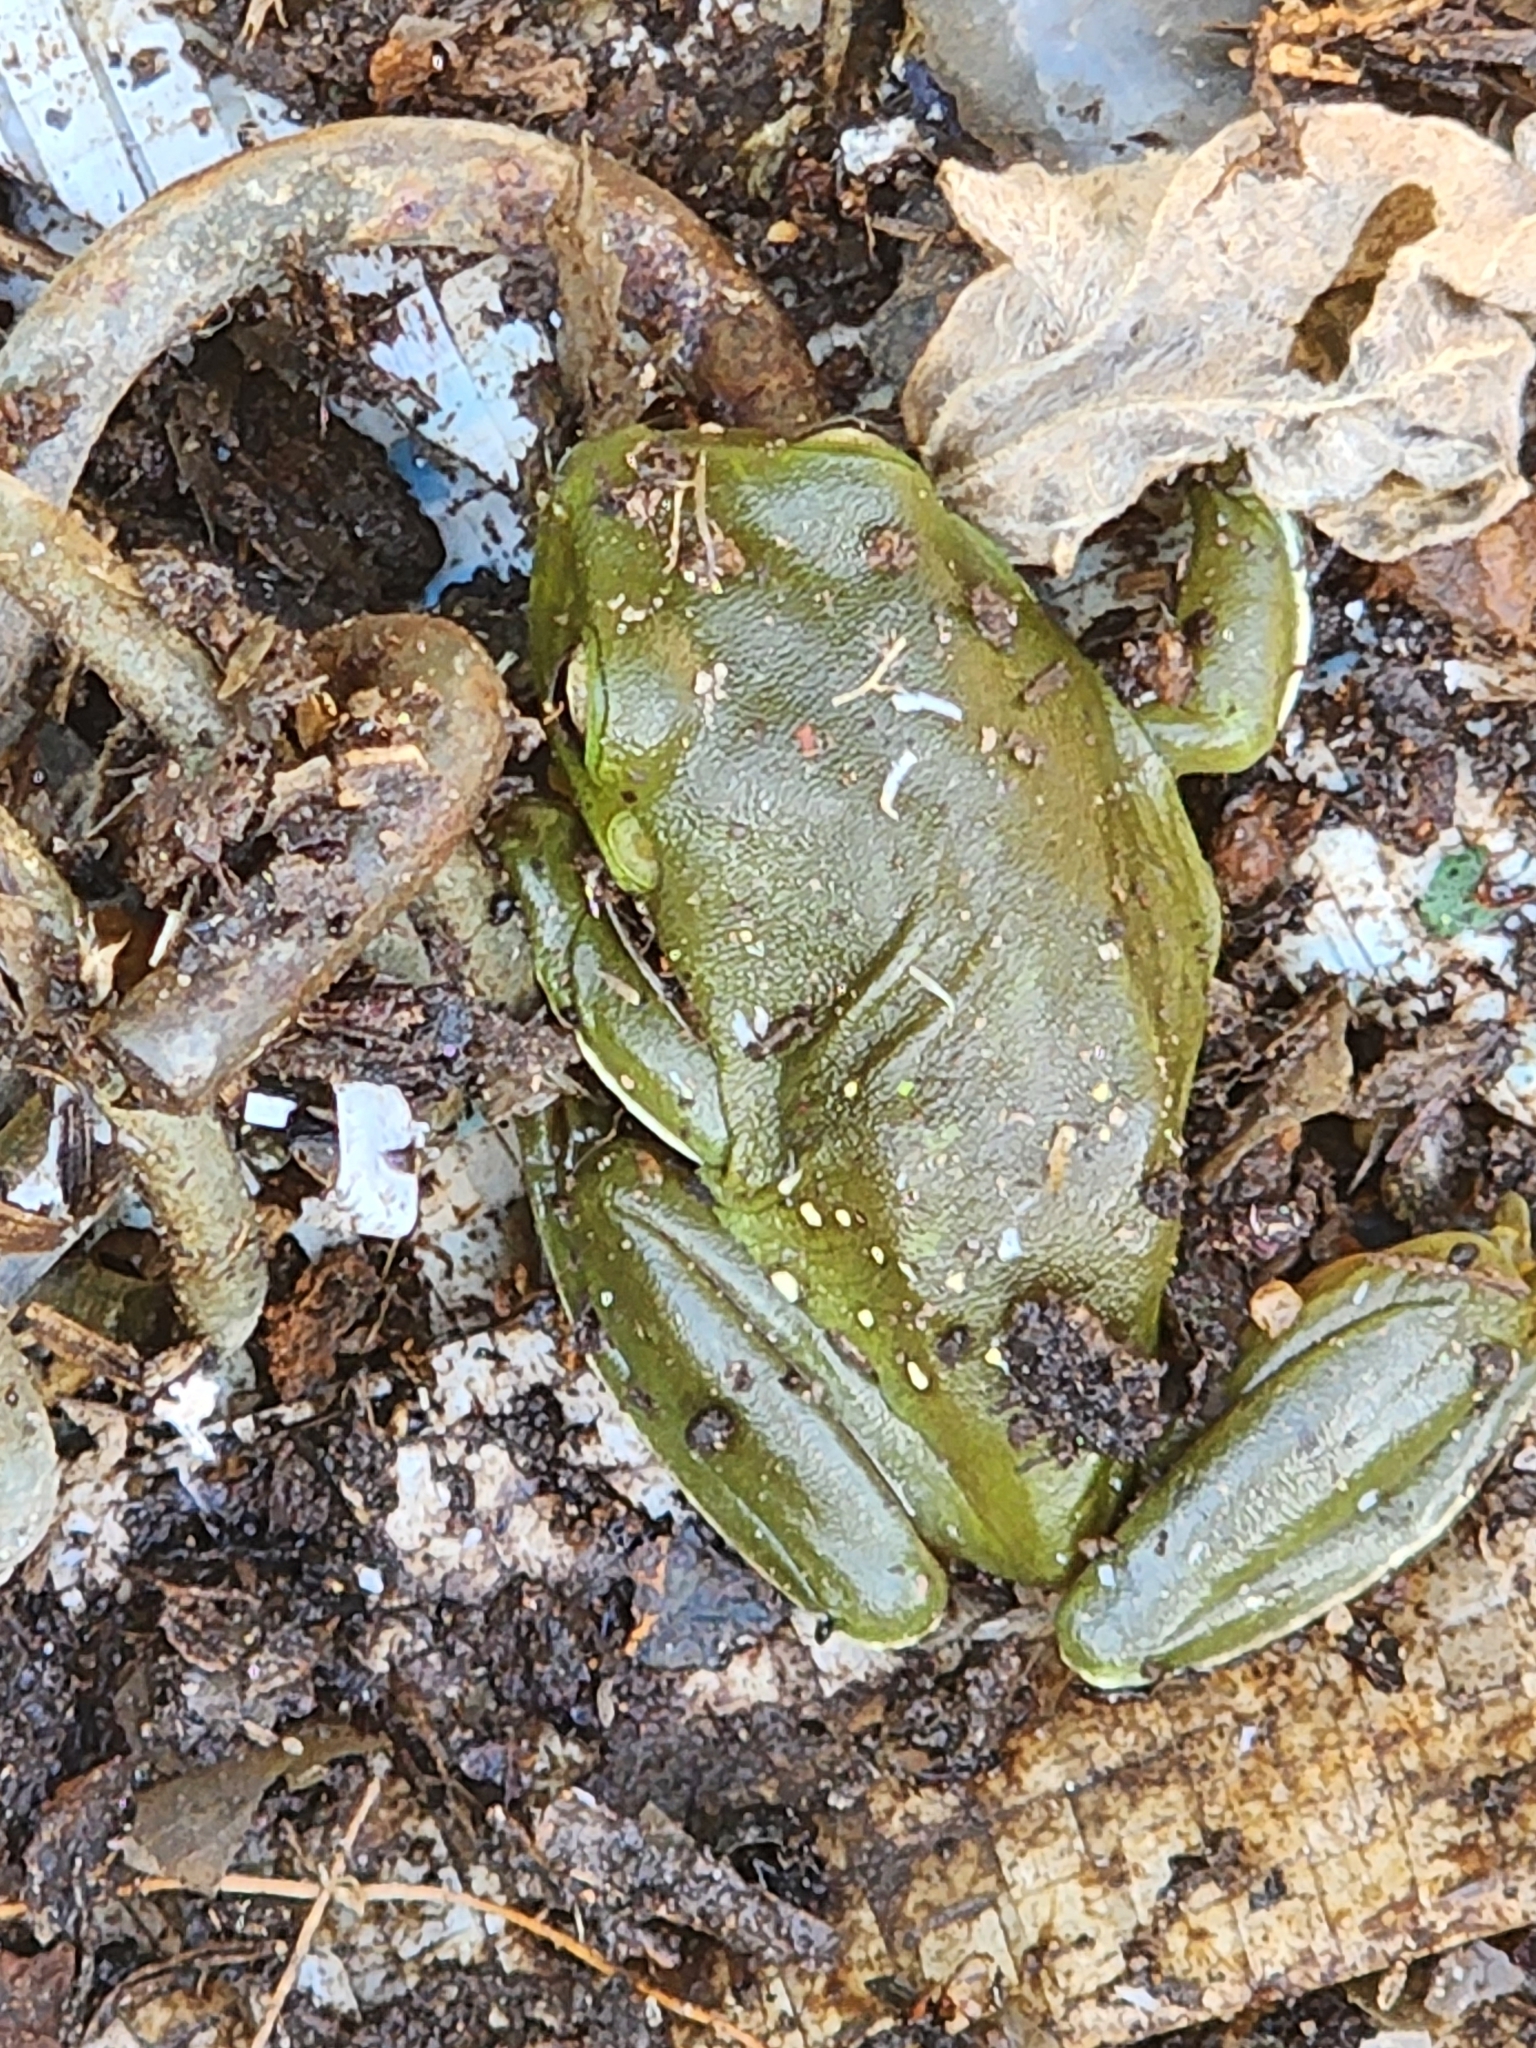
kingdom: Animalia
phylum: Chordata
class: Amphibia
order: Anura
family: Pelodryadidae
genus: Ranoidea
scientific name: Ranoidea caerulea
